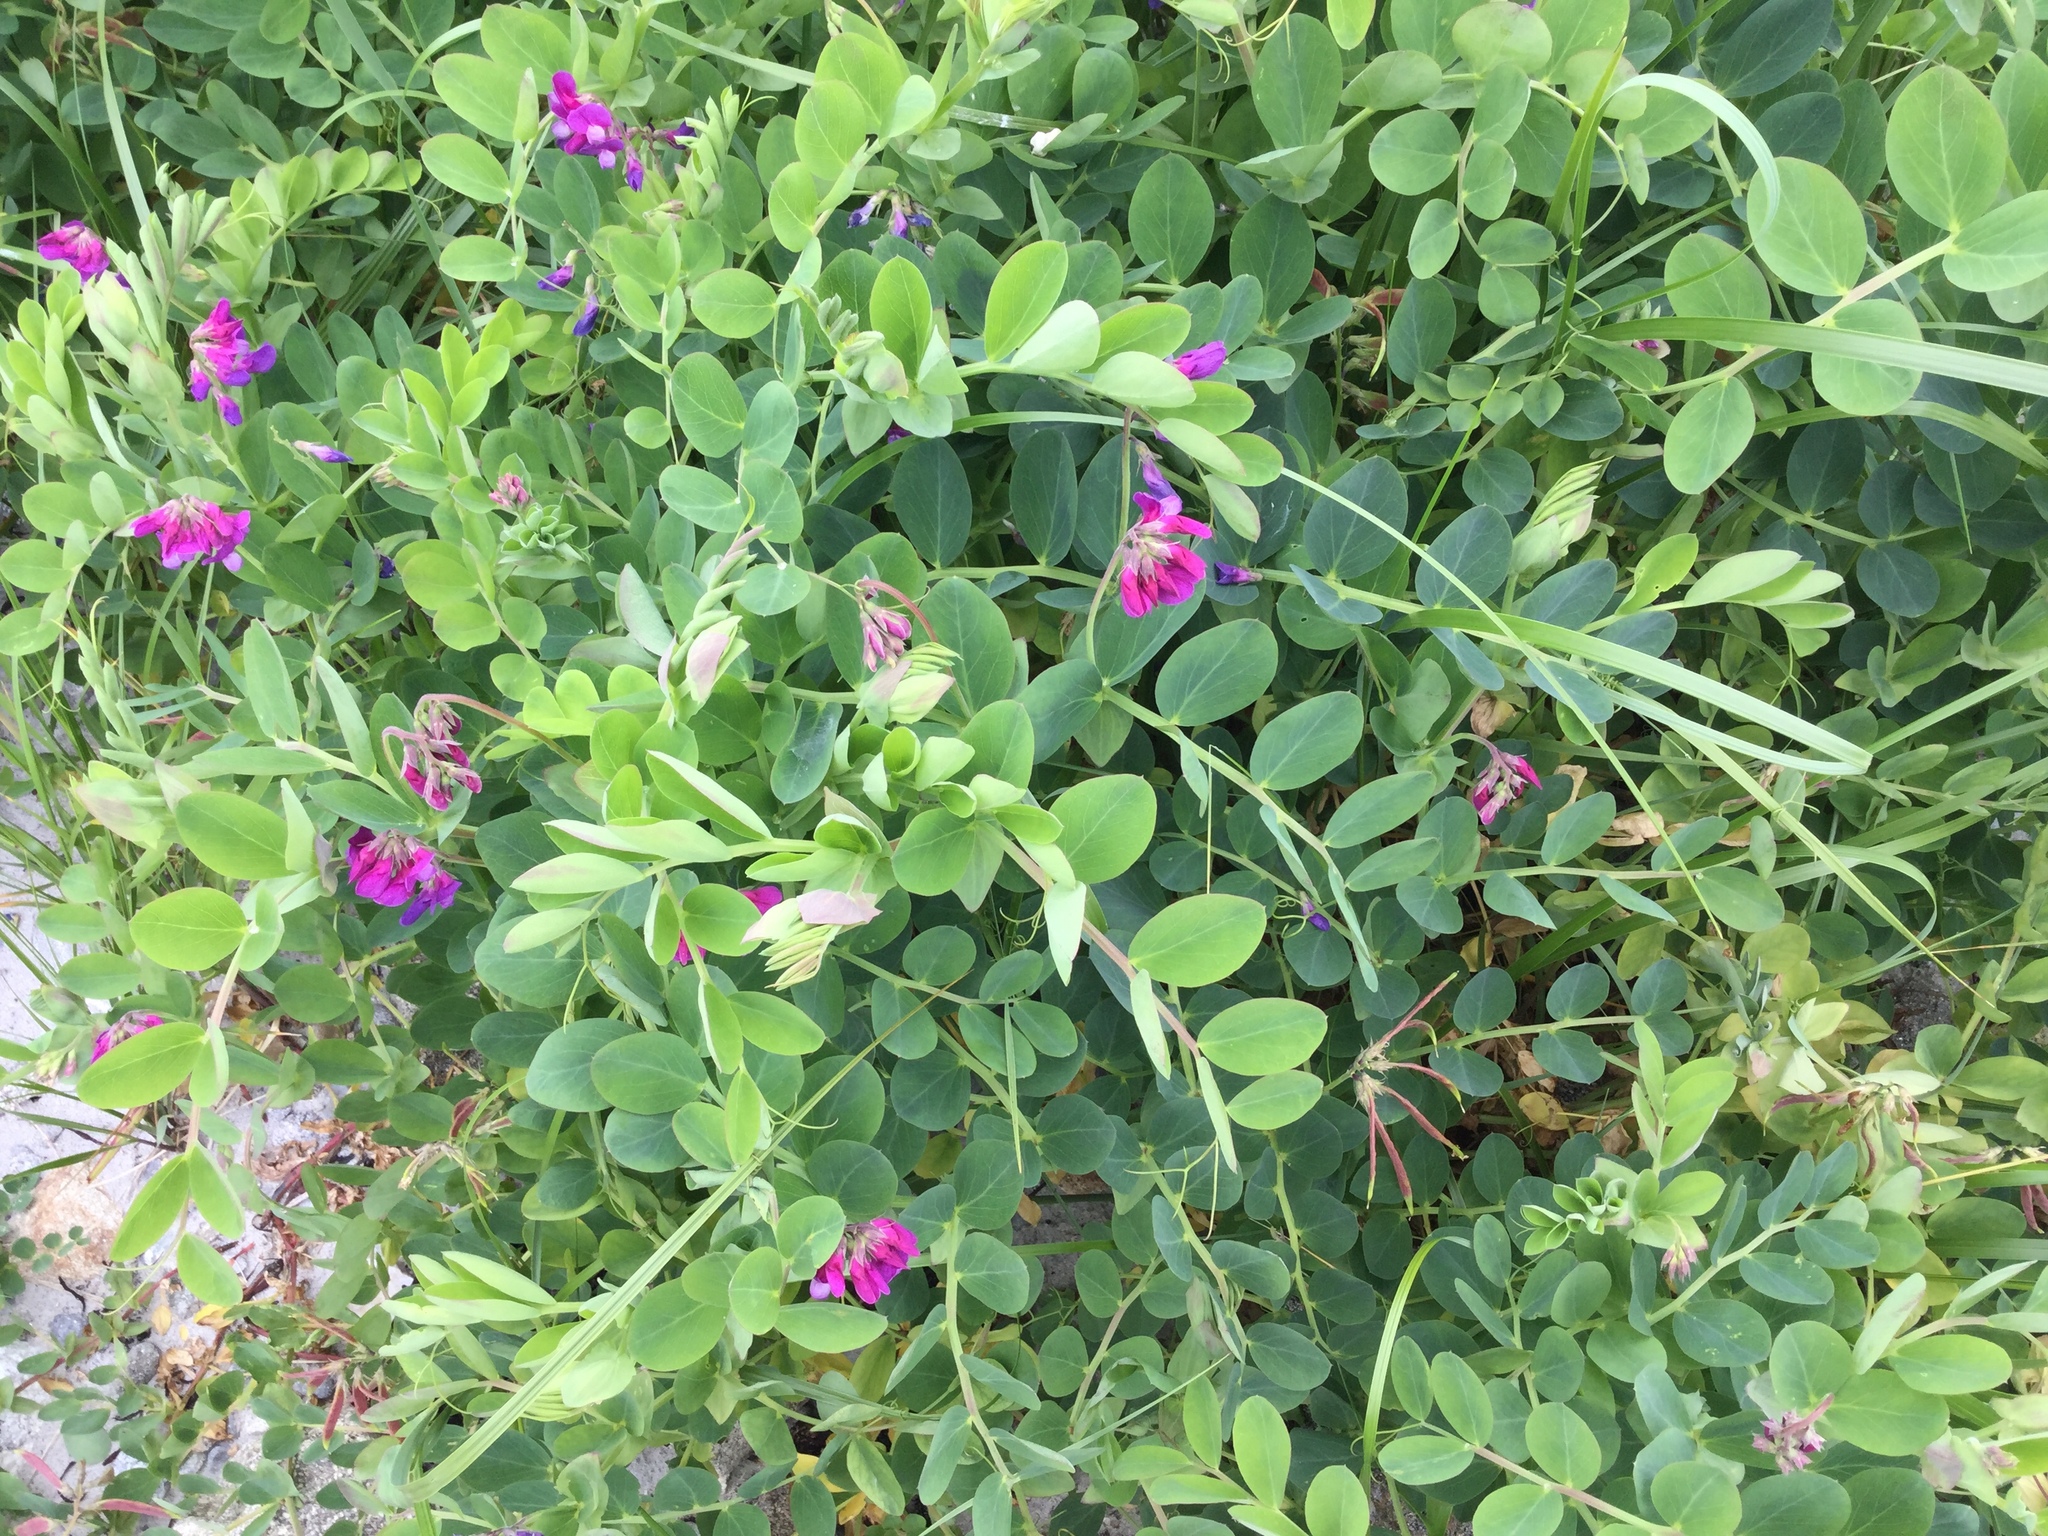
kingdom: Plantae
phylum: Tracheophyta
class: Magnoliopsida
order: Fabales
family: Fabaceae
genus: Lathyrus
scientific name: Lathyrus japonicus
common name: Sea pea
